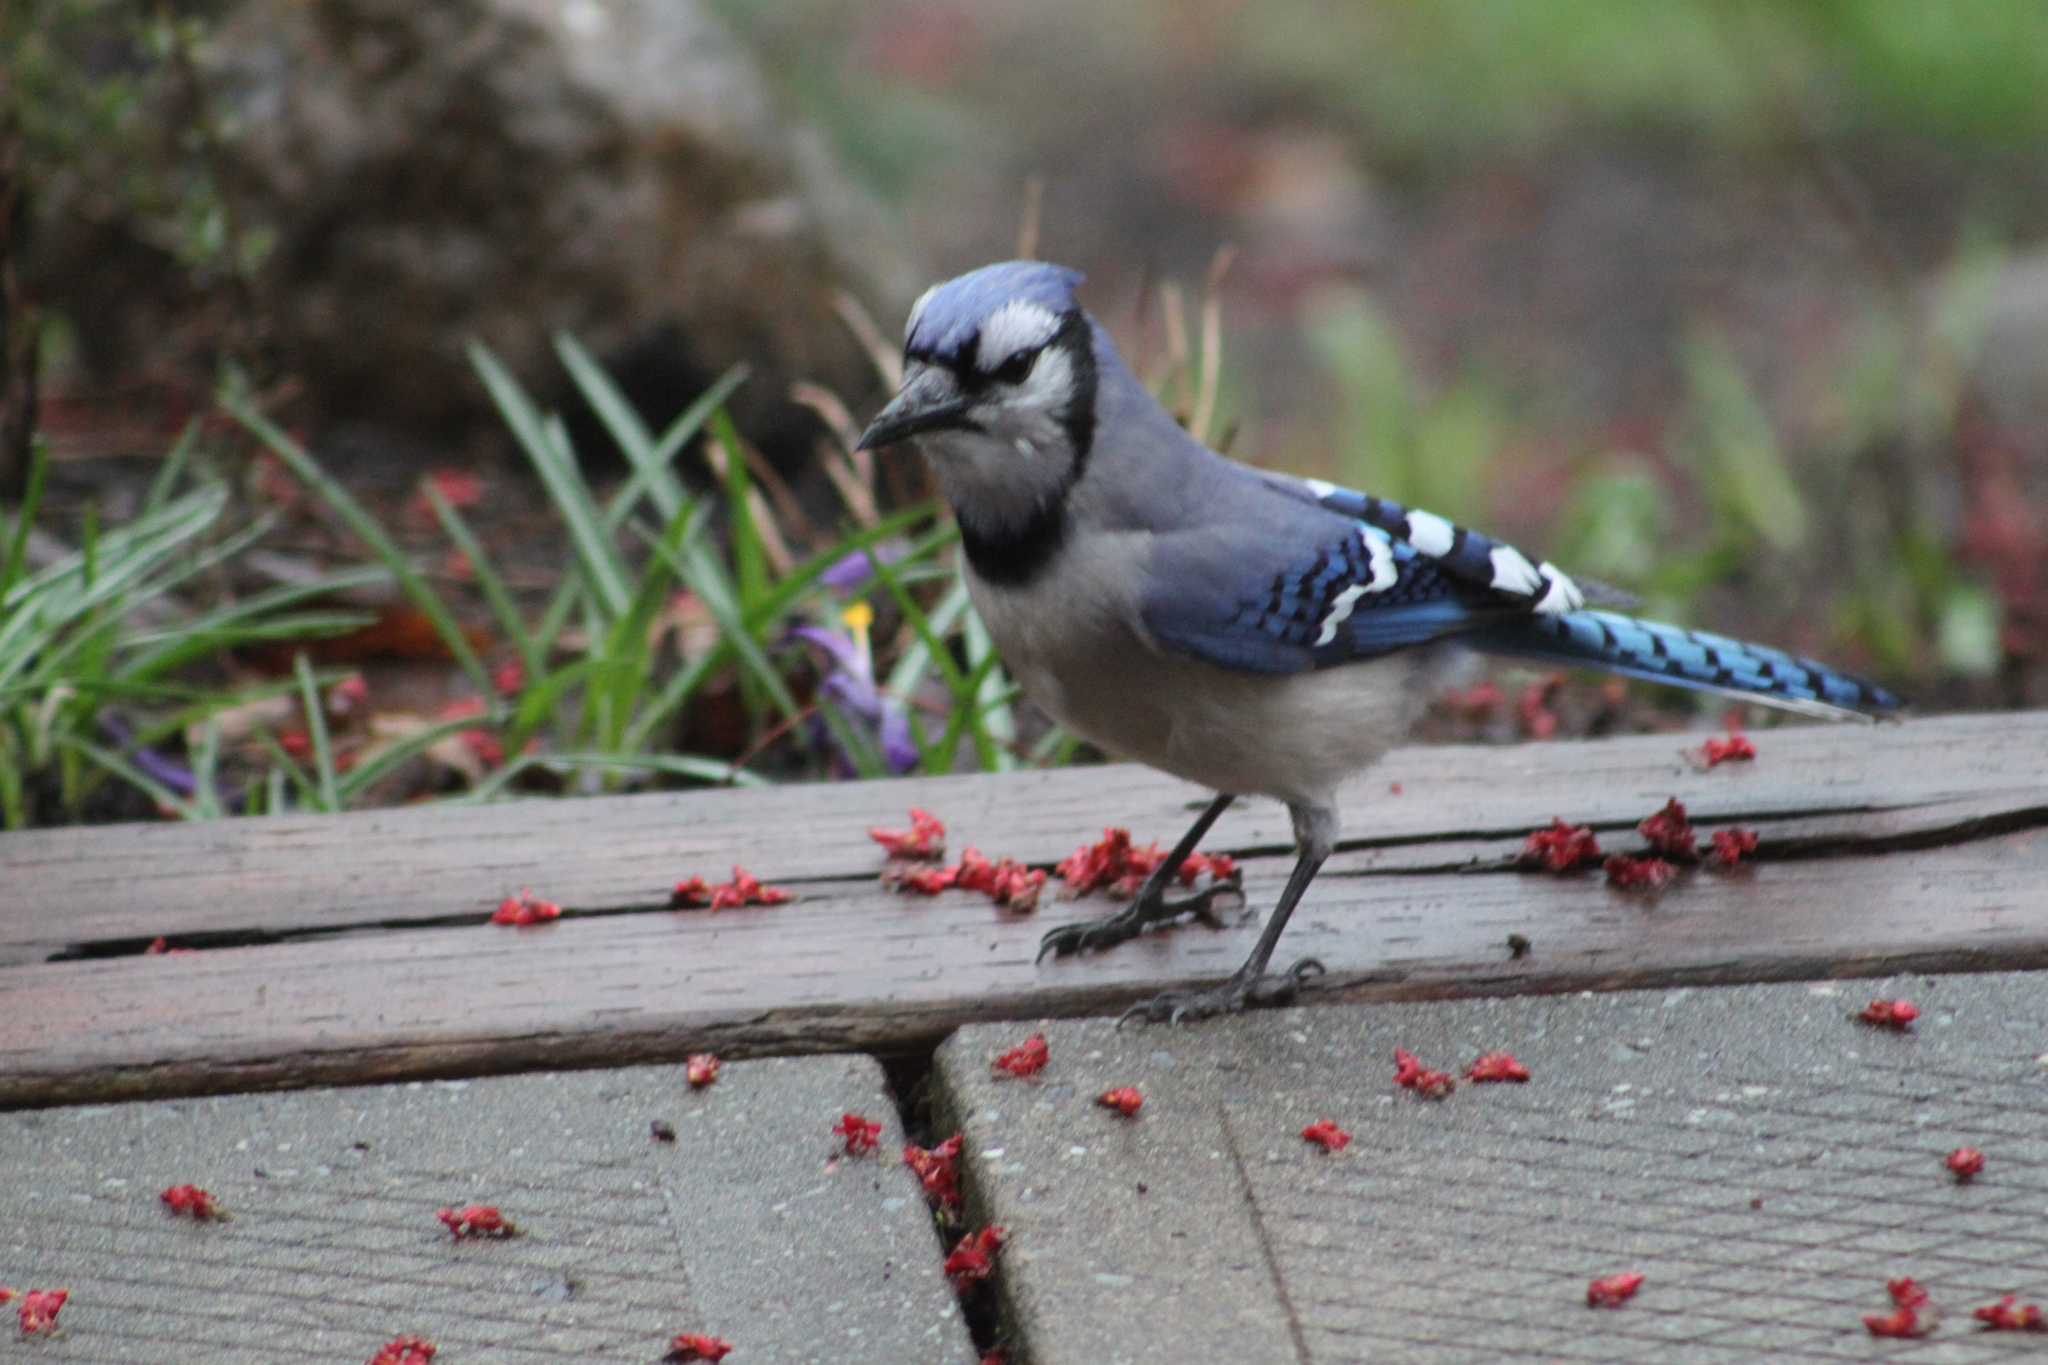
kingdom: Animalia
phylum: Chordata
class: Aves
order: Passeriformes
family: Corvidae
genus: Cyanocitta
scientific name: Cyanocitta cristata
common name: Blue jay
